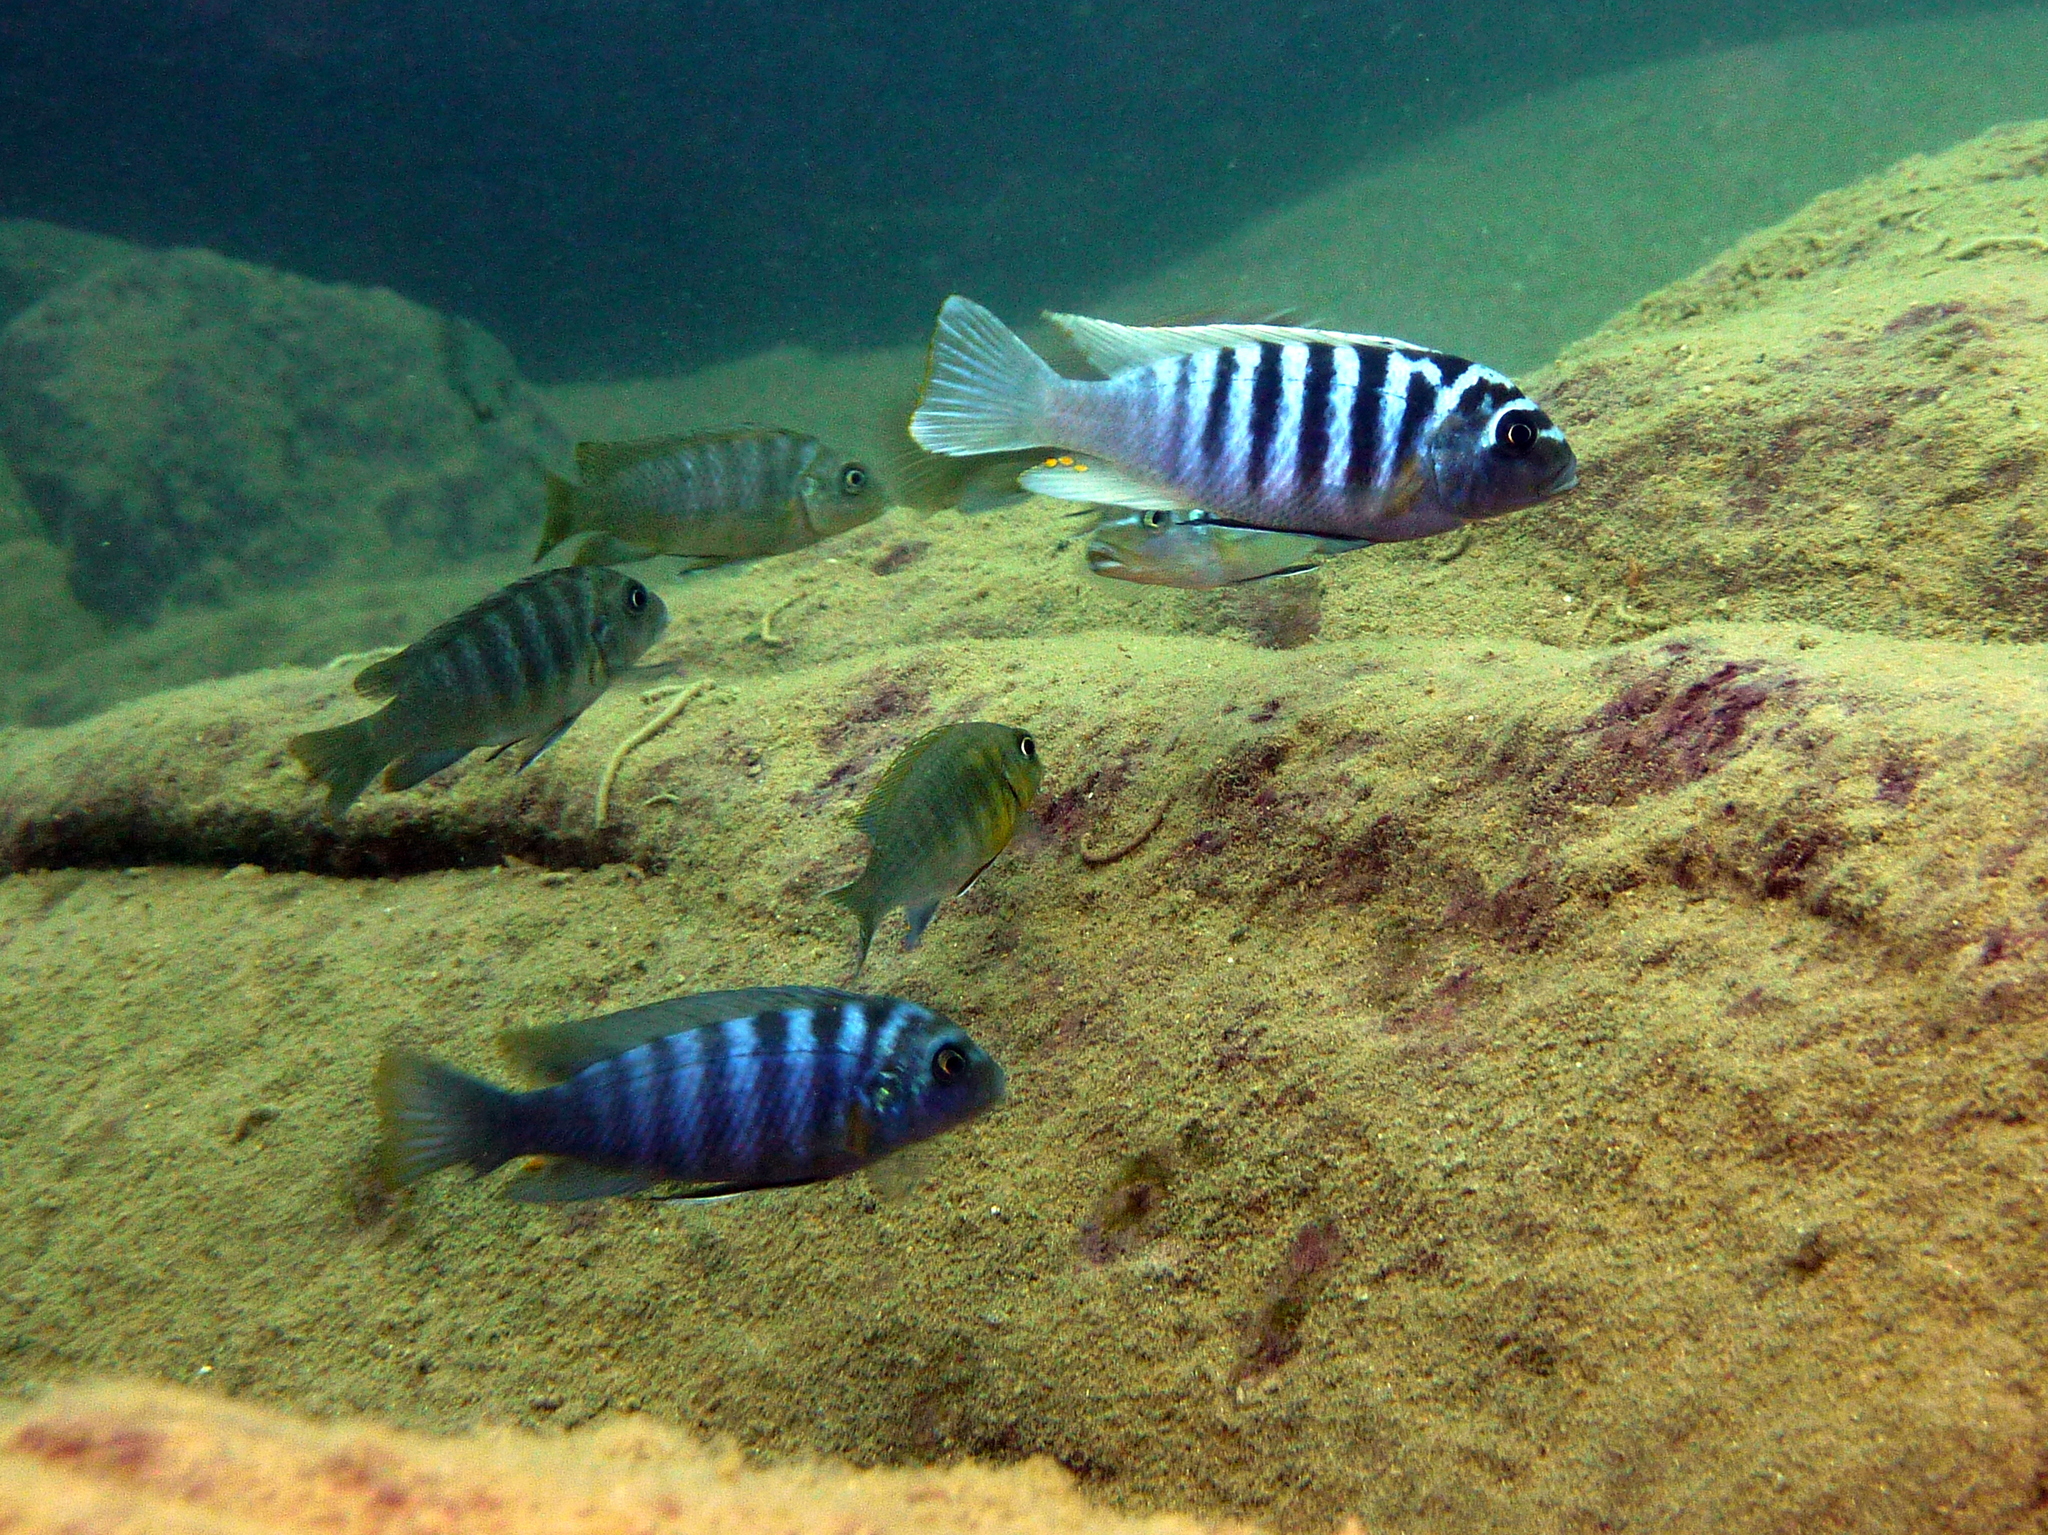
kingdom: Animalia
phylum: Chordata
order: Perciformes
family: Cichlidae
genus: Maylandia
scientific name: Maylandia zebra
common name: Zebra mbuna
